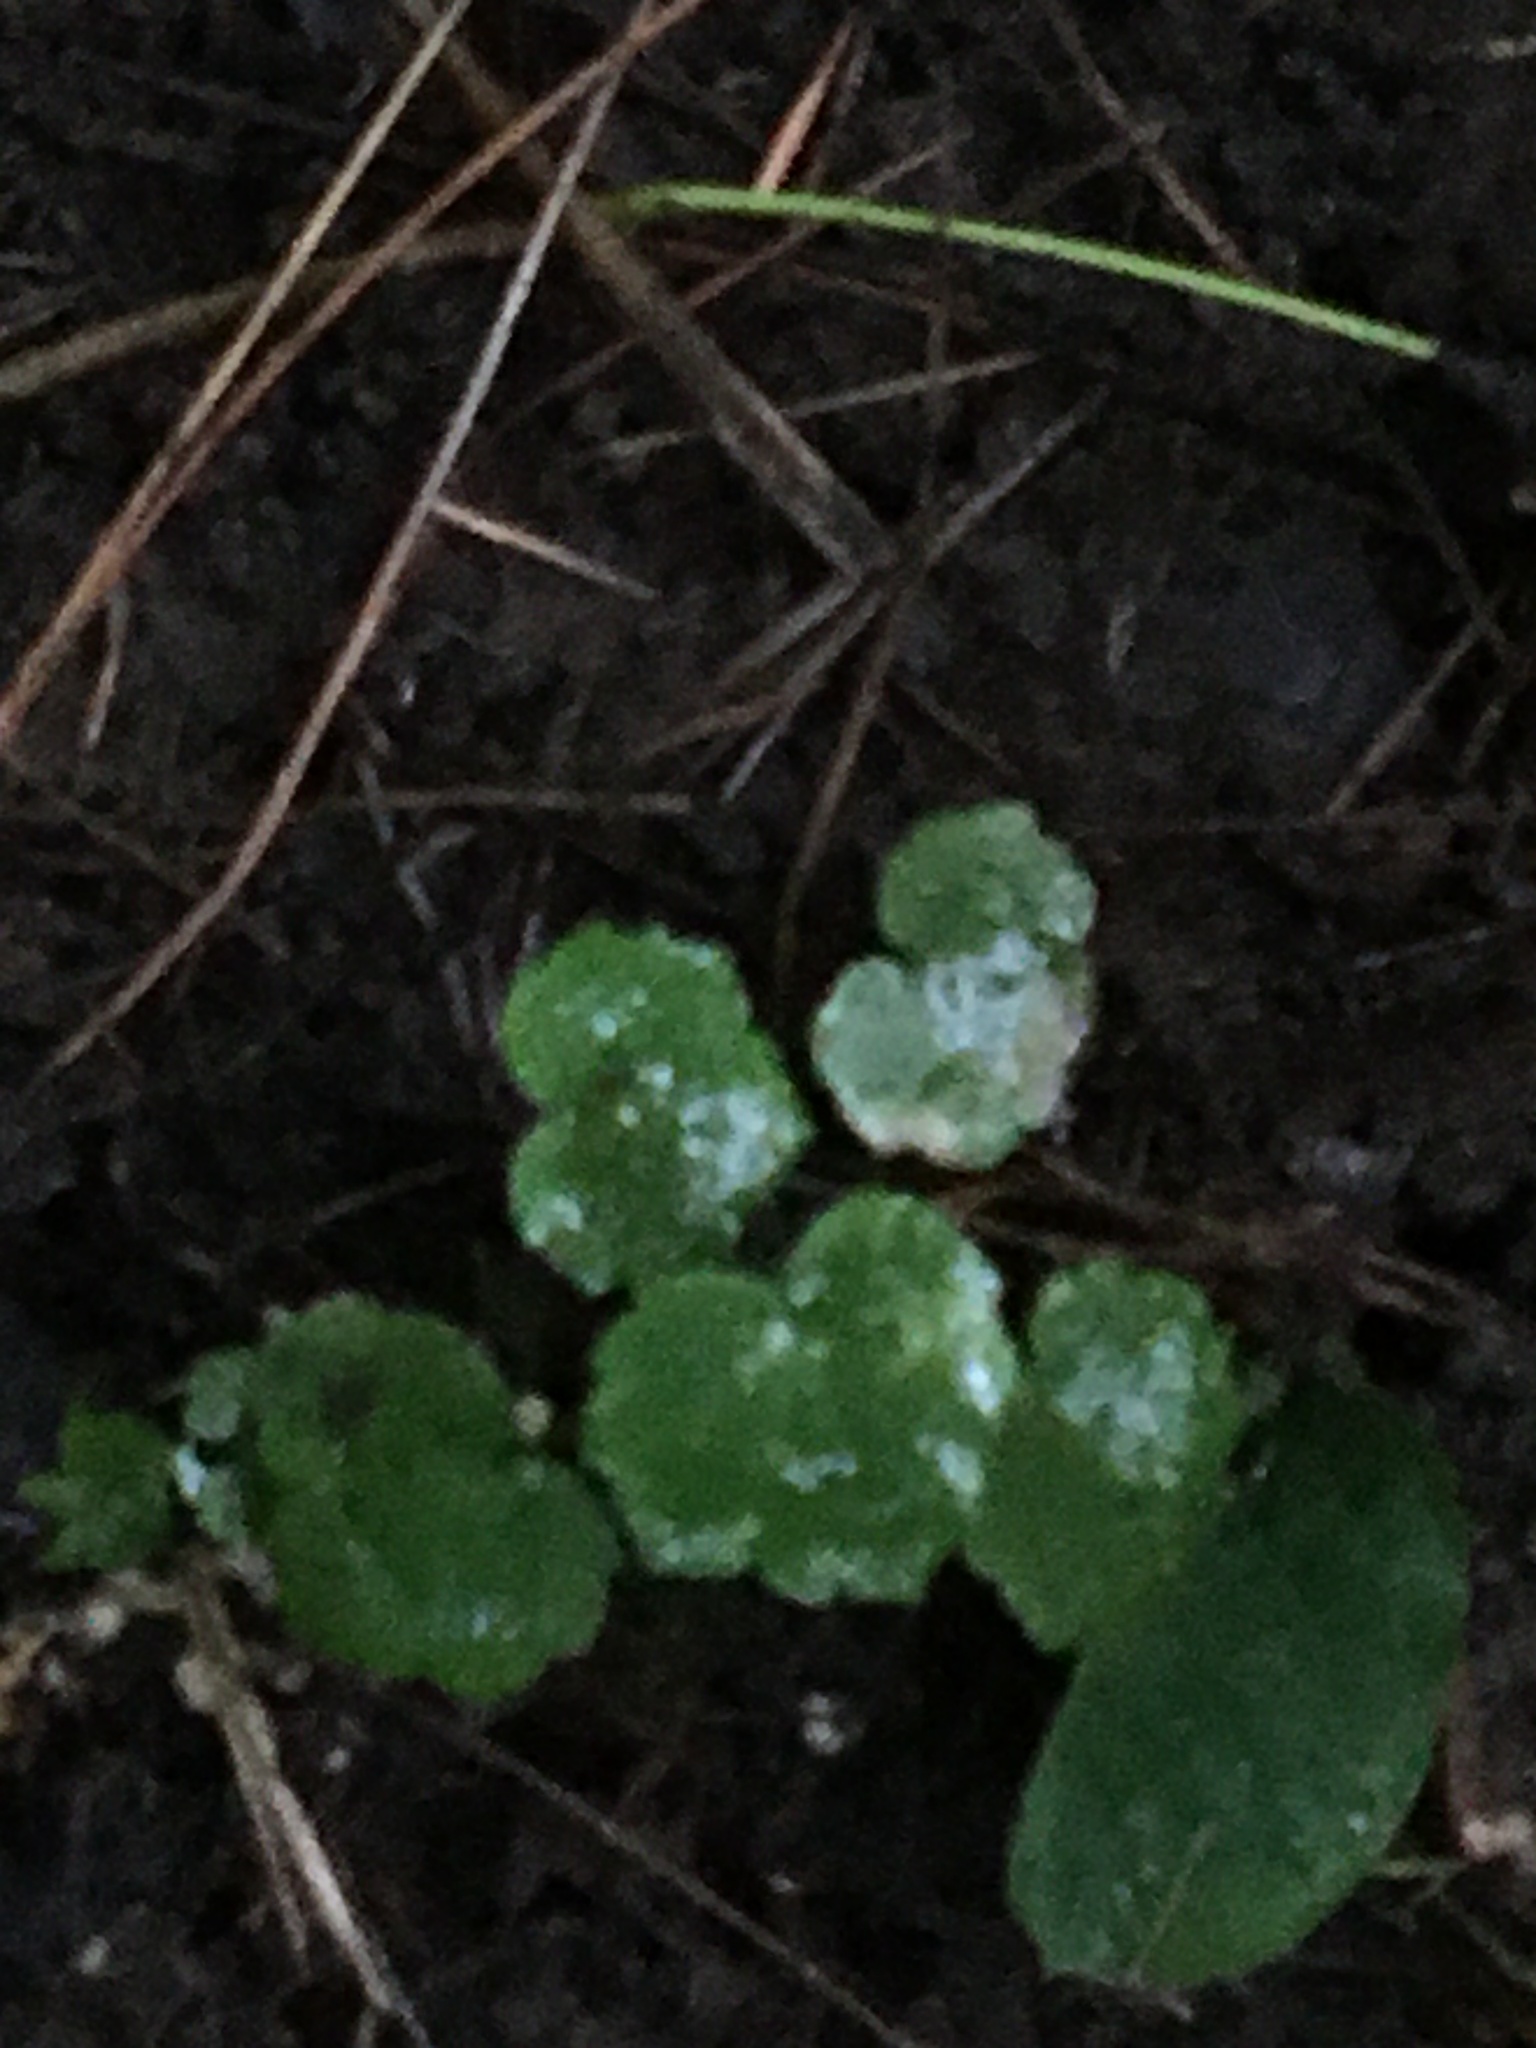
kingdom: Plantae
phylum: Tracheophyta
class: Magnoliopsida
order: Apiales
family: Araliaceae
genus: Hydrocotyle
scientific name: Hydrocotyle americana
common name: American water-pennywort
